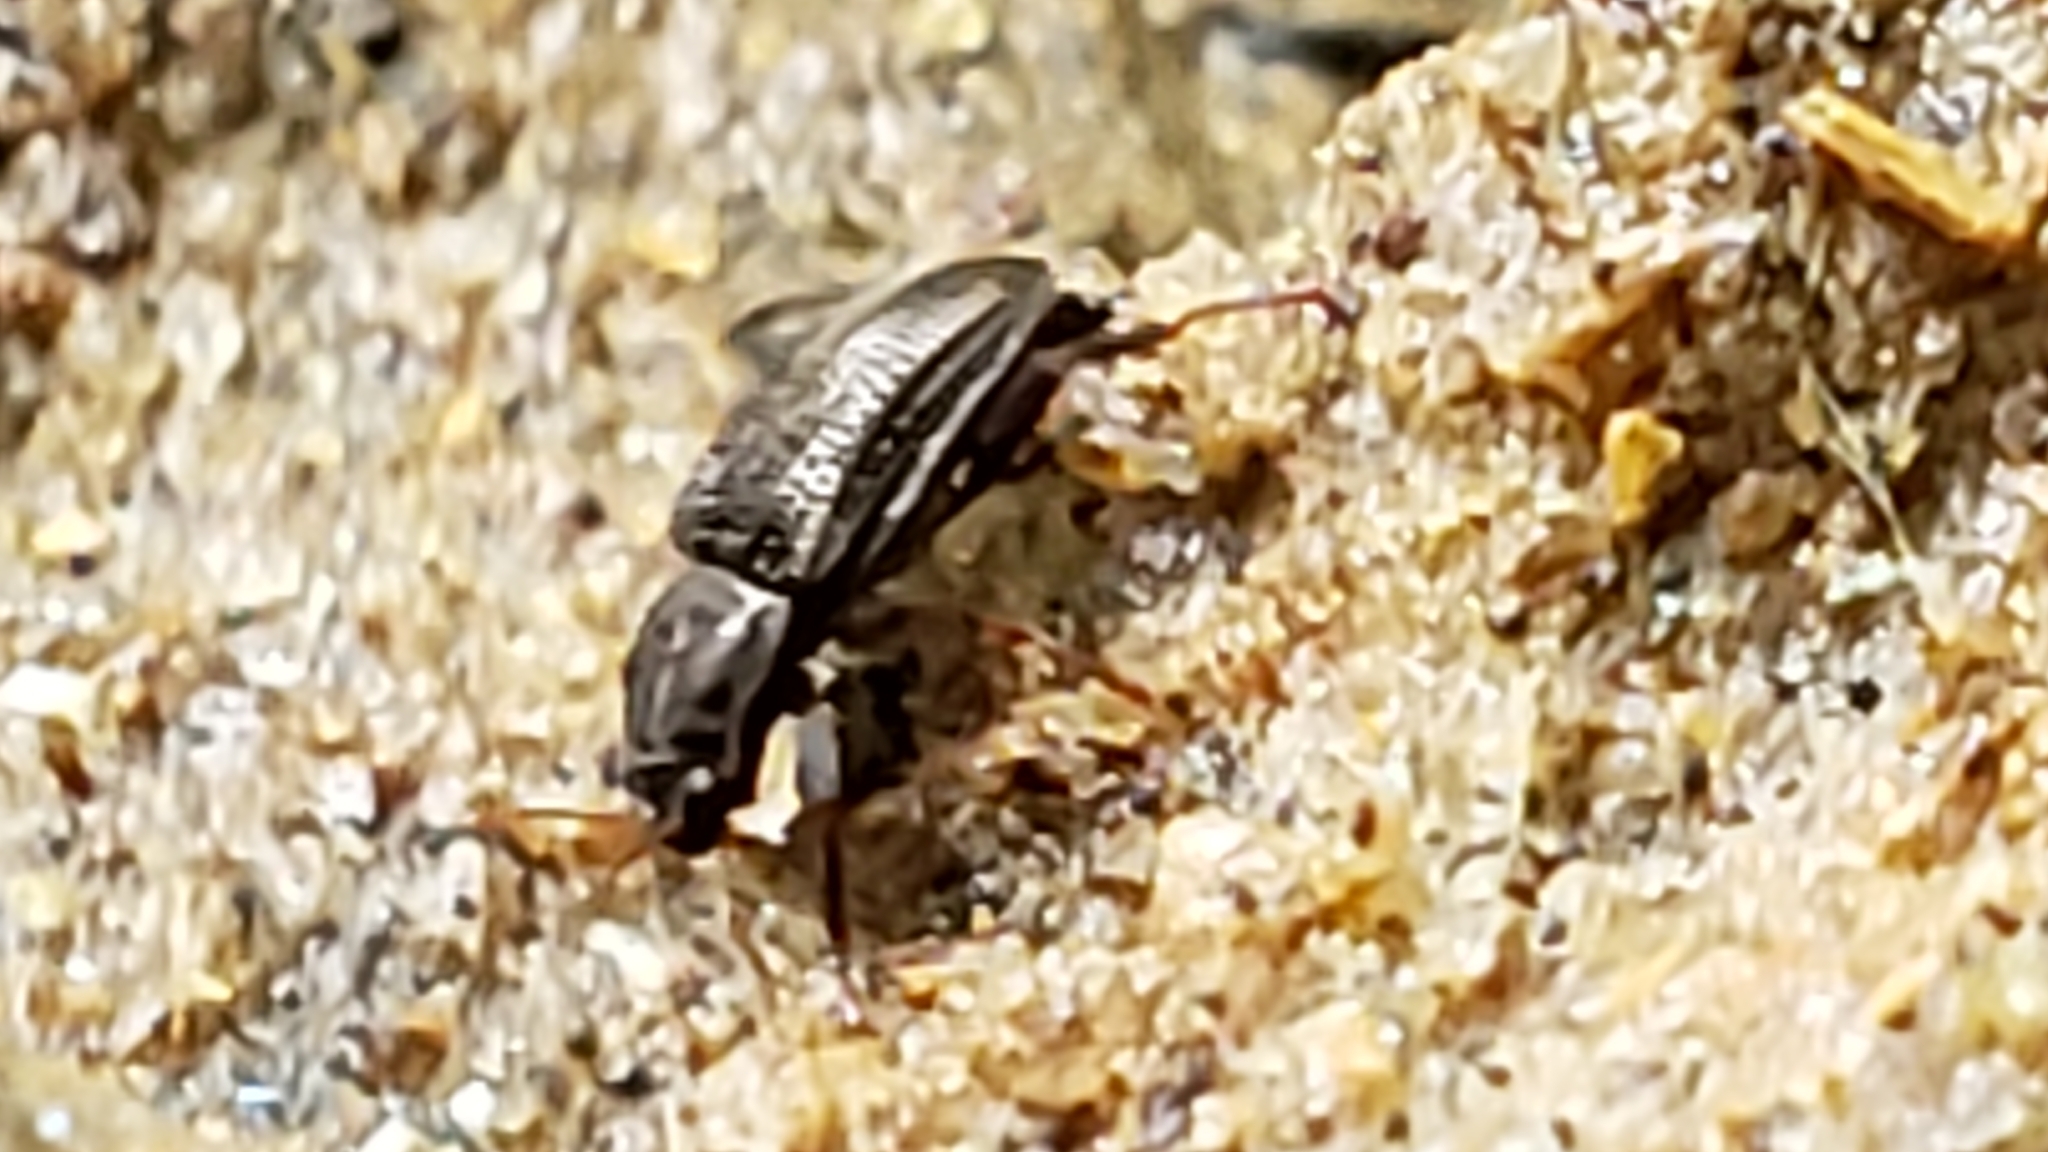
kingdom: Animalia
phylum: Arthropoda
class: Insecta
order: Coleoptera
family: Elmidae
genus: Stenelmis
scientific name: Stenelmis
